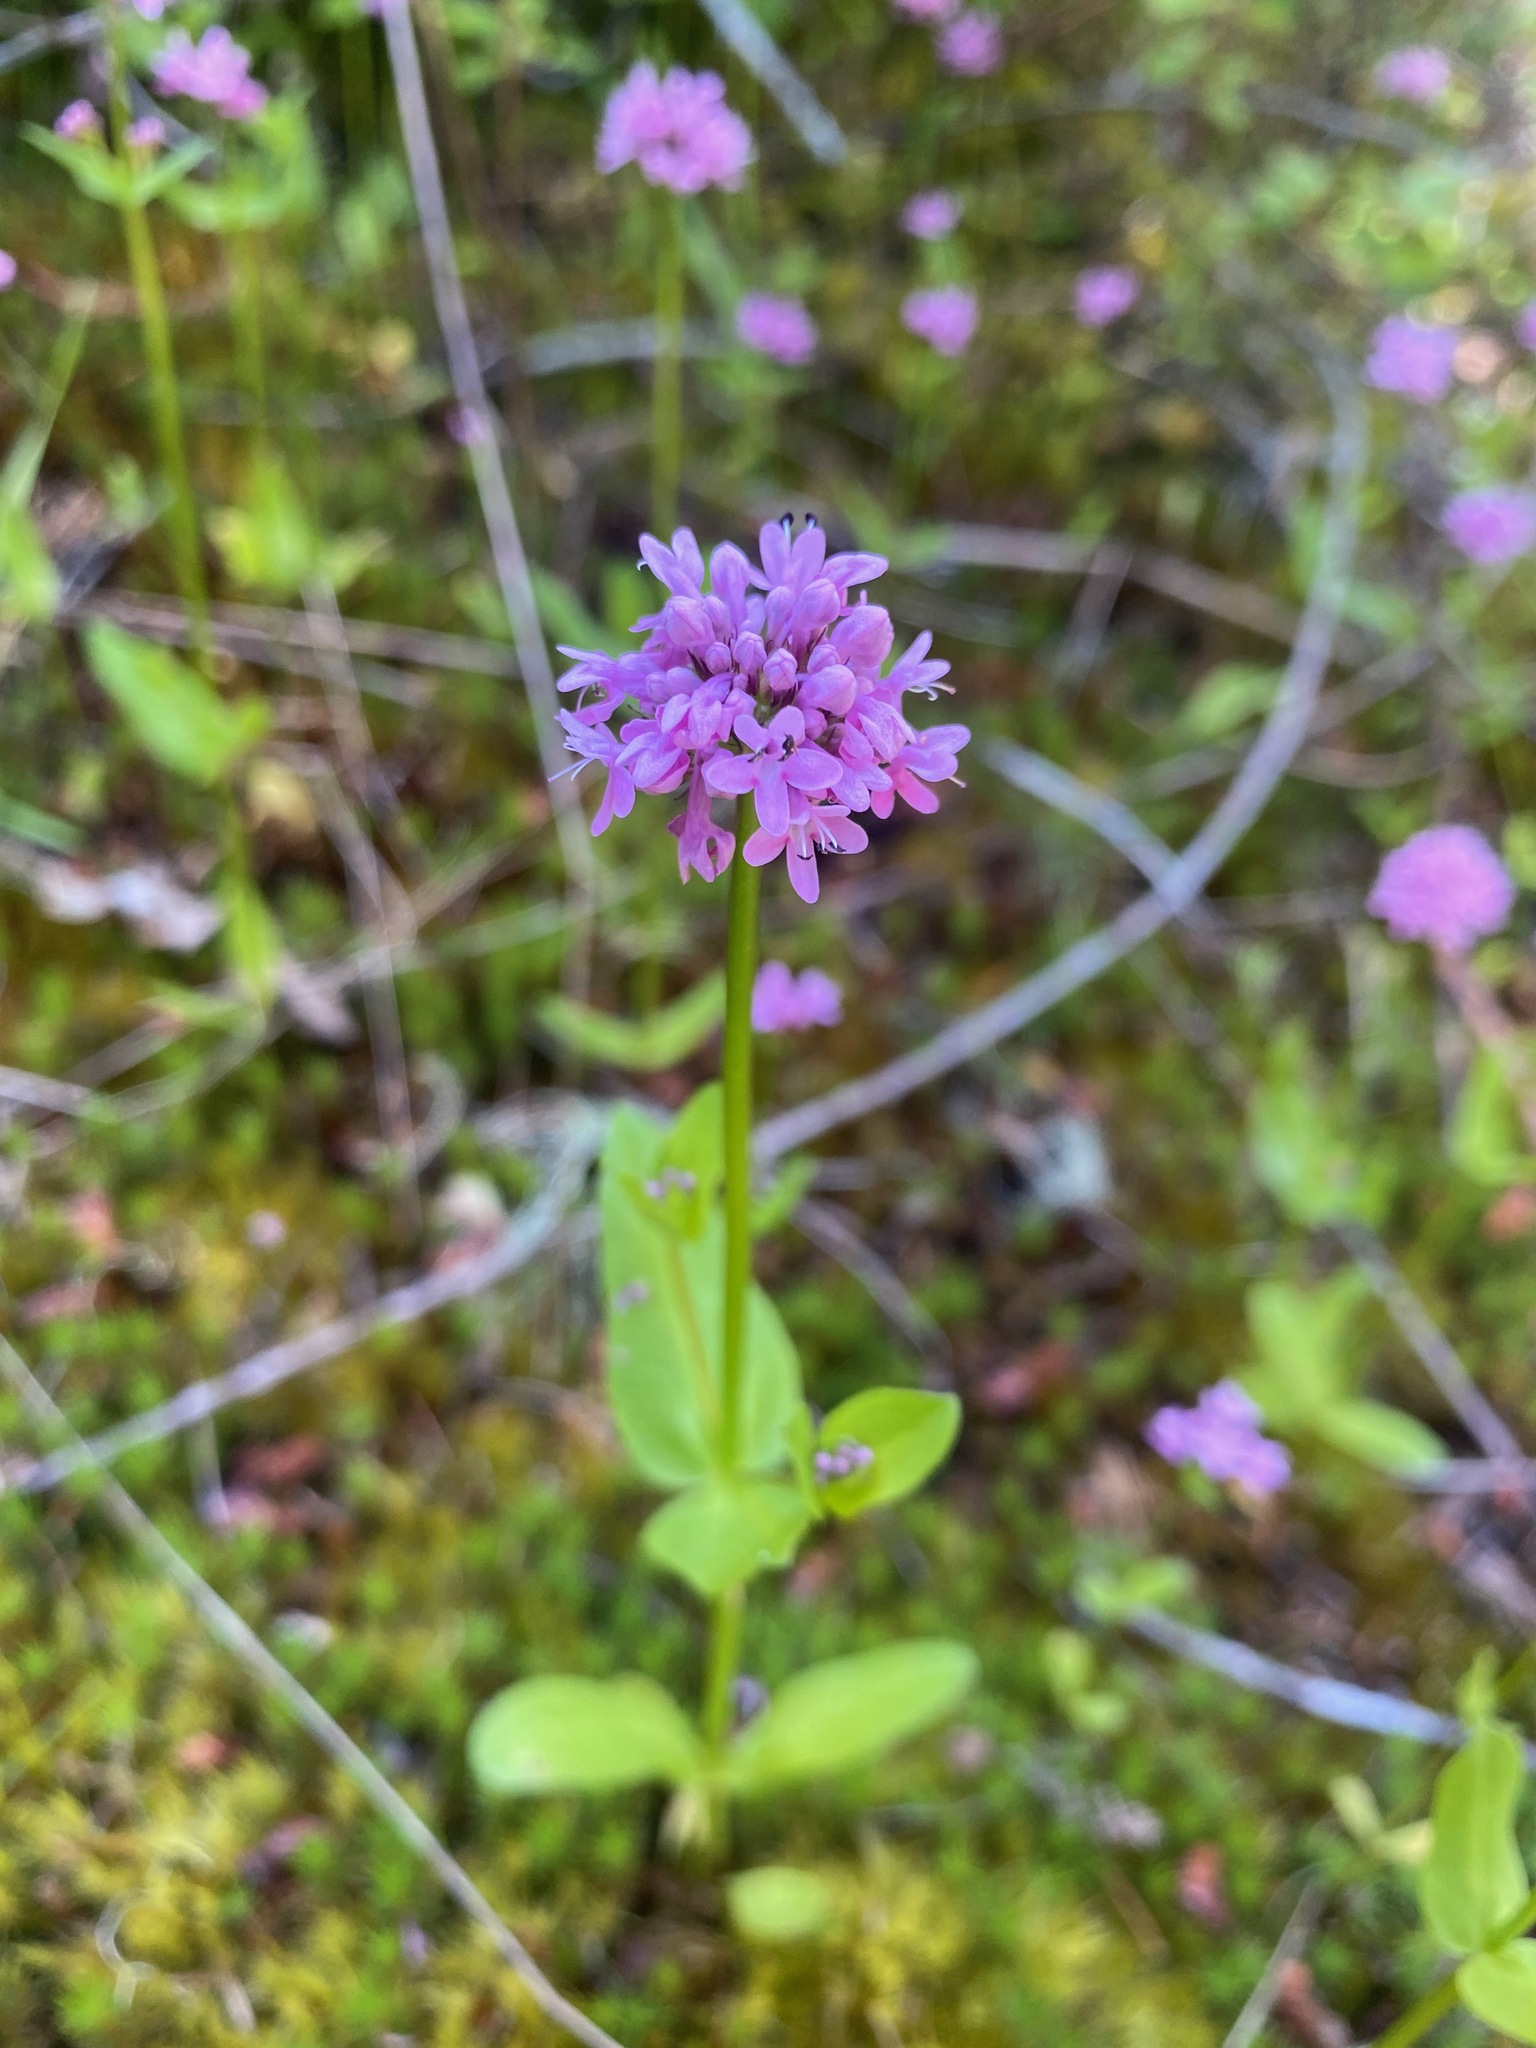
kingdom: Plantae
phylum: Tracheophyta
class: Magnoliopsida
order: Dipsacales
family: Caprifoliaceae
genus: Plectritis
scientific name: Plectritis congesta
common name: Pink plectritis
